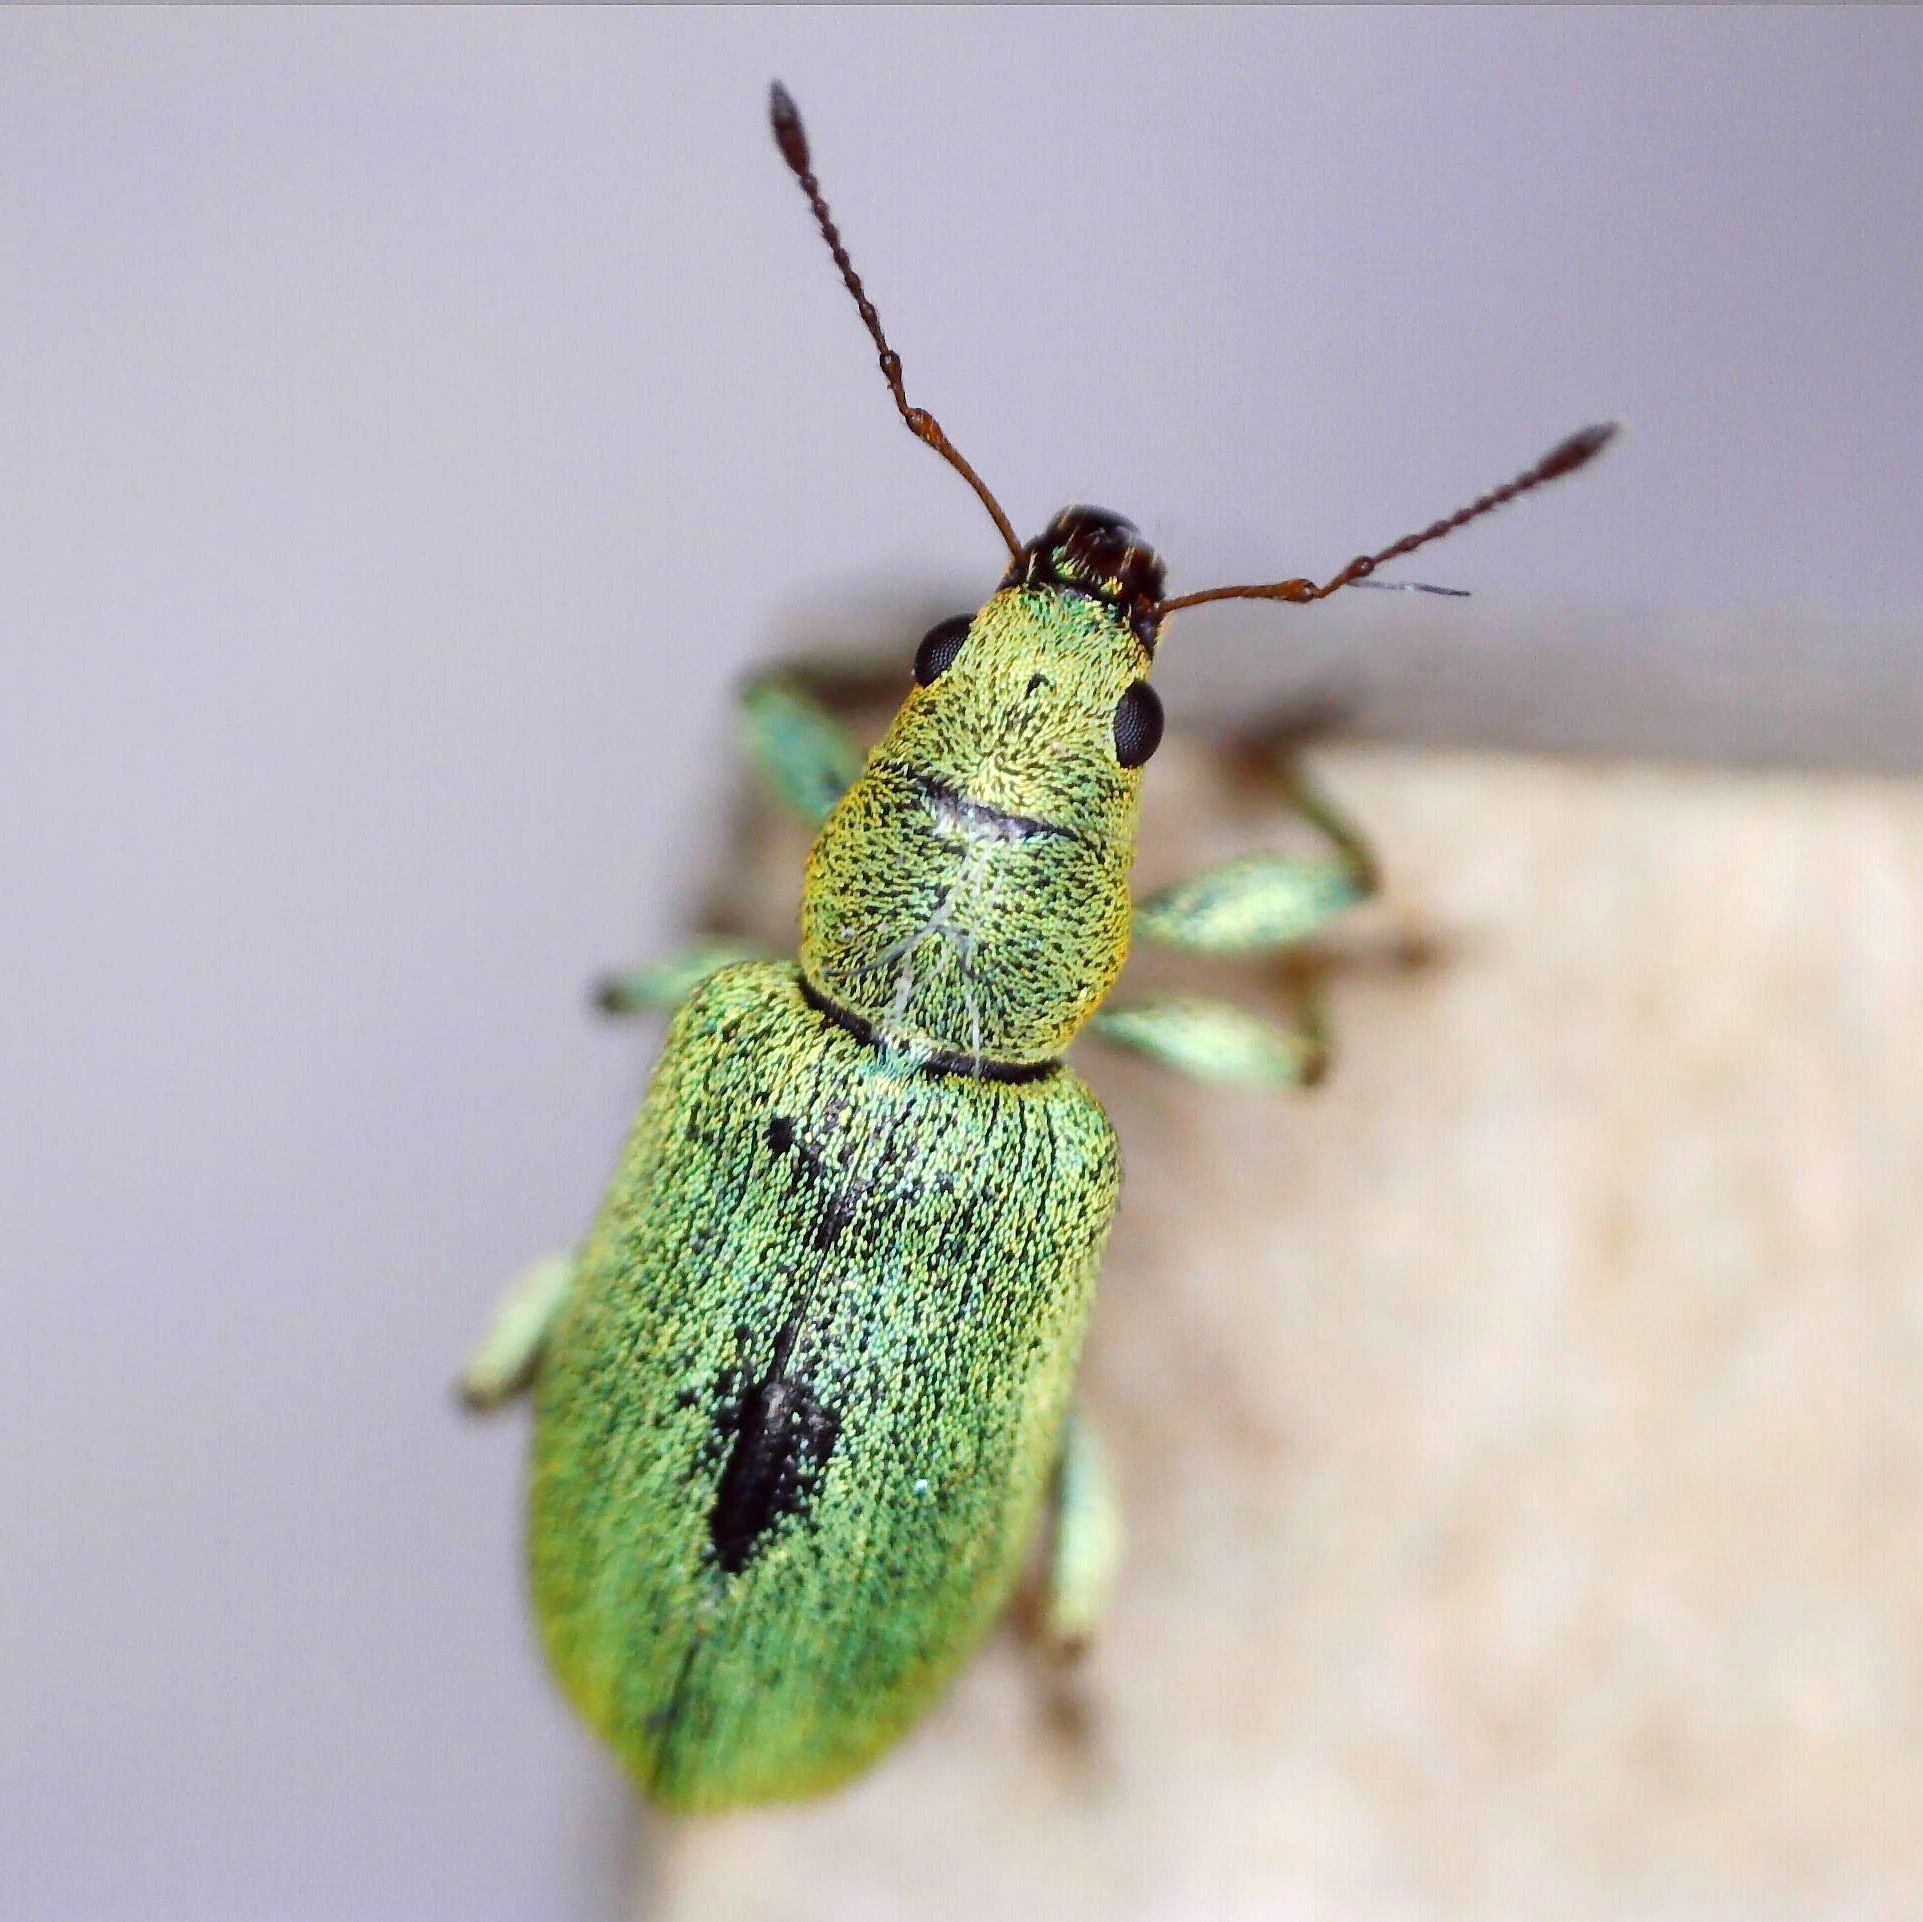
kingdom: Animalia
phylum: Arthropoda
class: Insecta
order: Coleoptera
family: Curculionidae
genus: Pachyrhinus
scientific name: Pachyrhinus lethierryi
